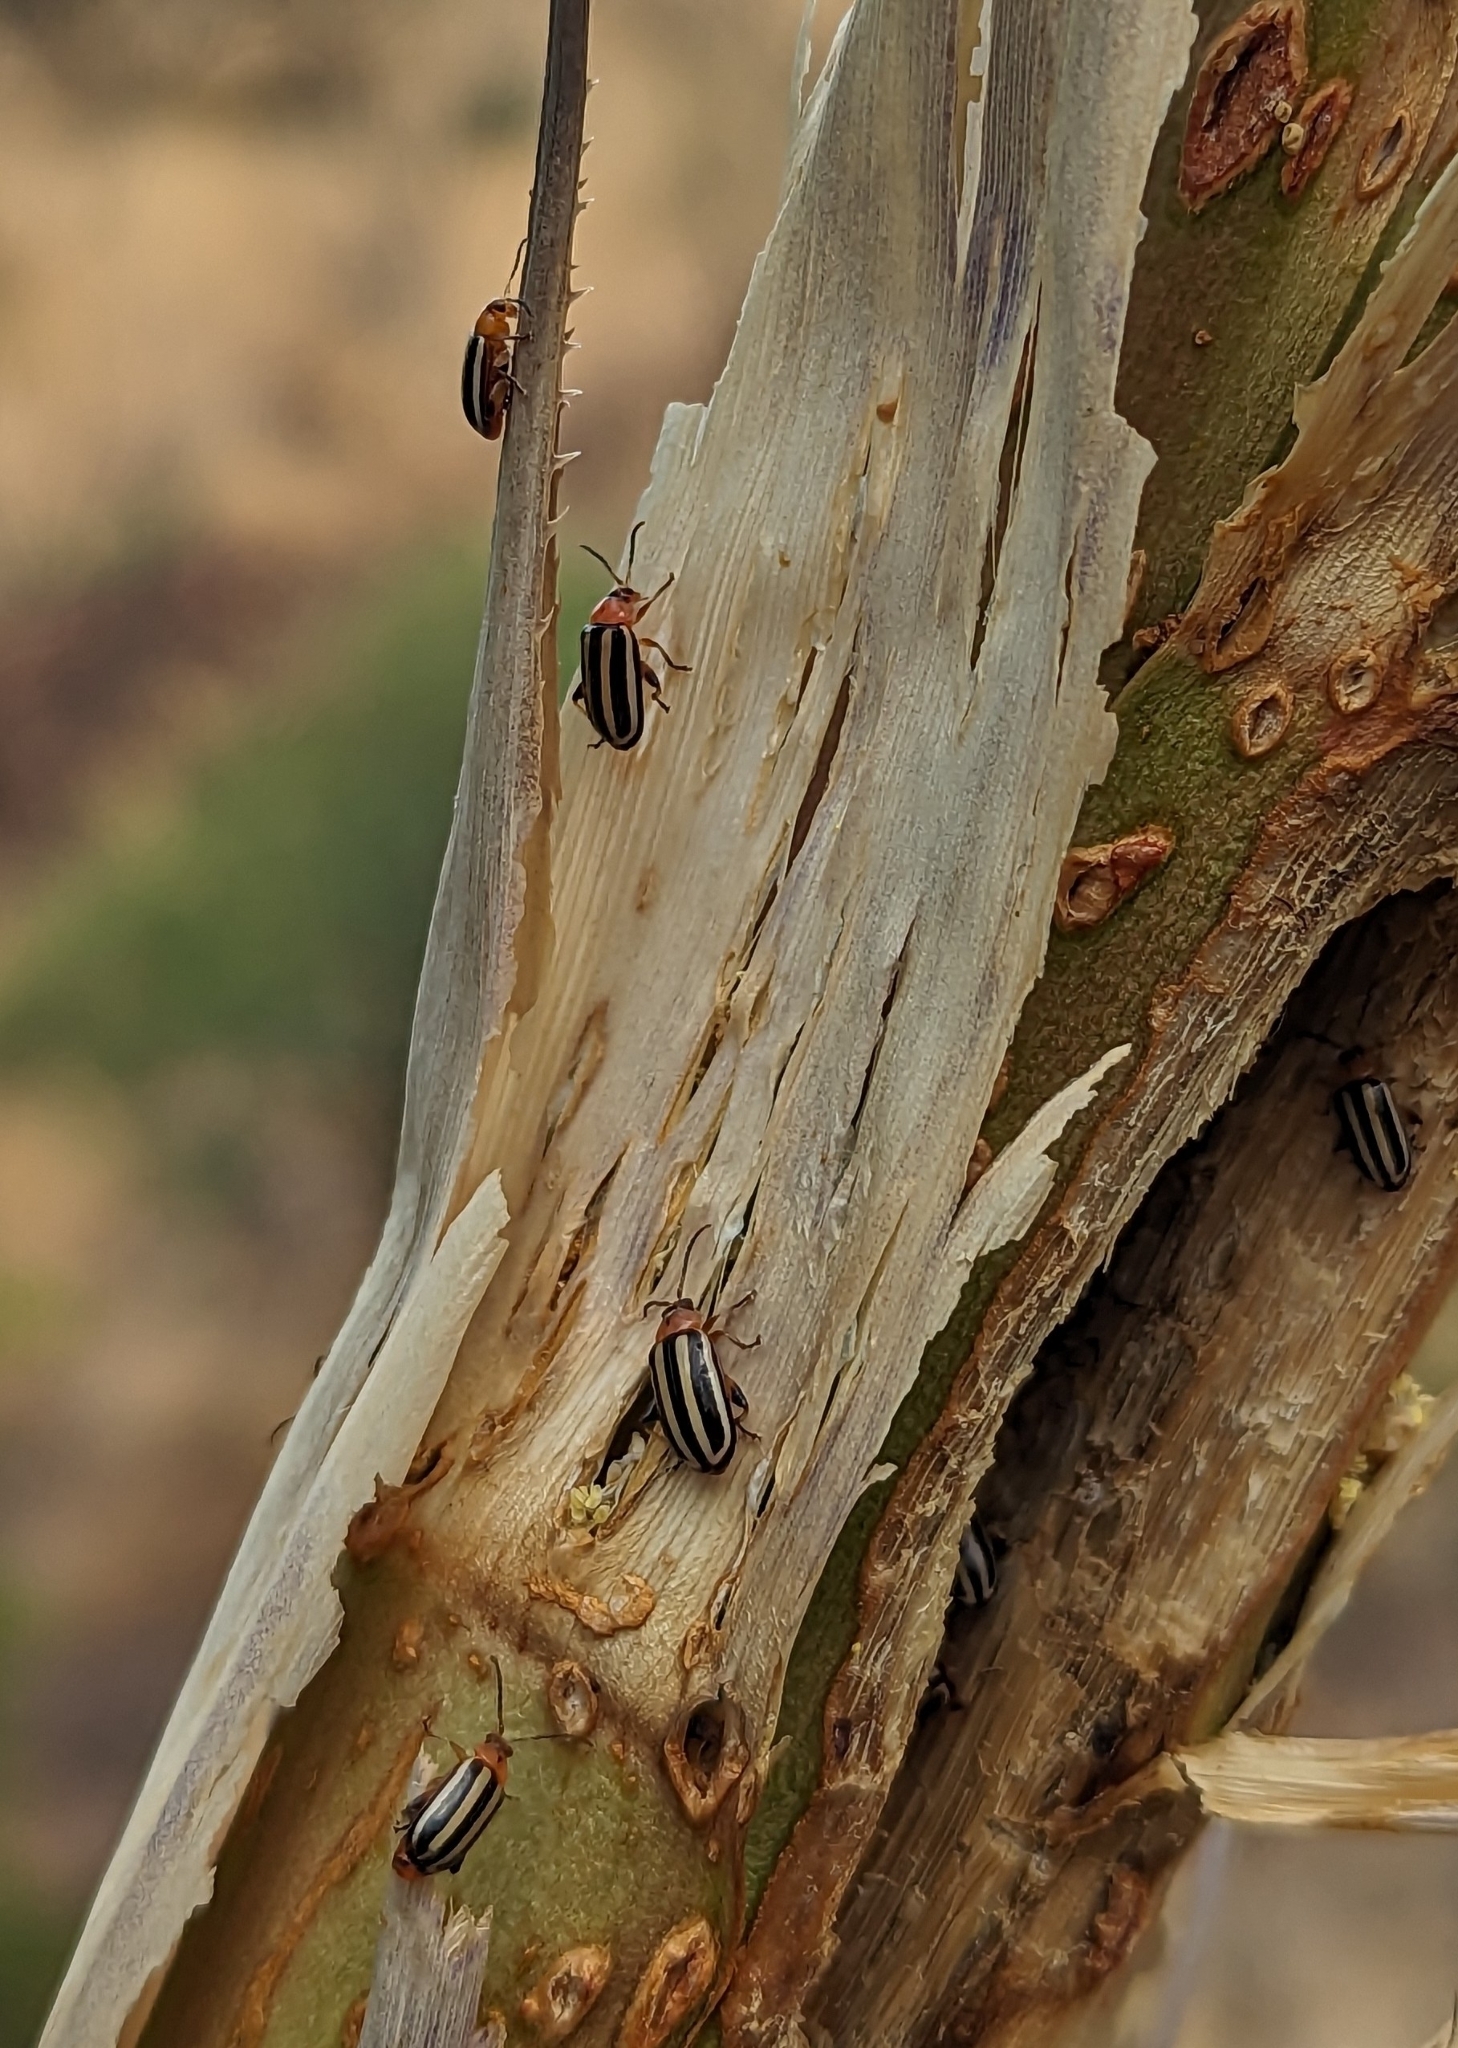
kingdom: Animalia
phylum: Arthropoda
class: Insecta
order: Coleoptera
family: Chrysomelidae
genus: Disonycha
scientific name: Disonycha glabrata
